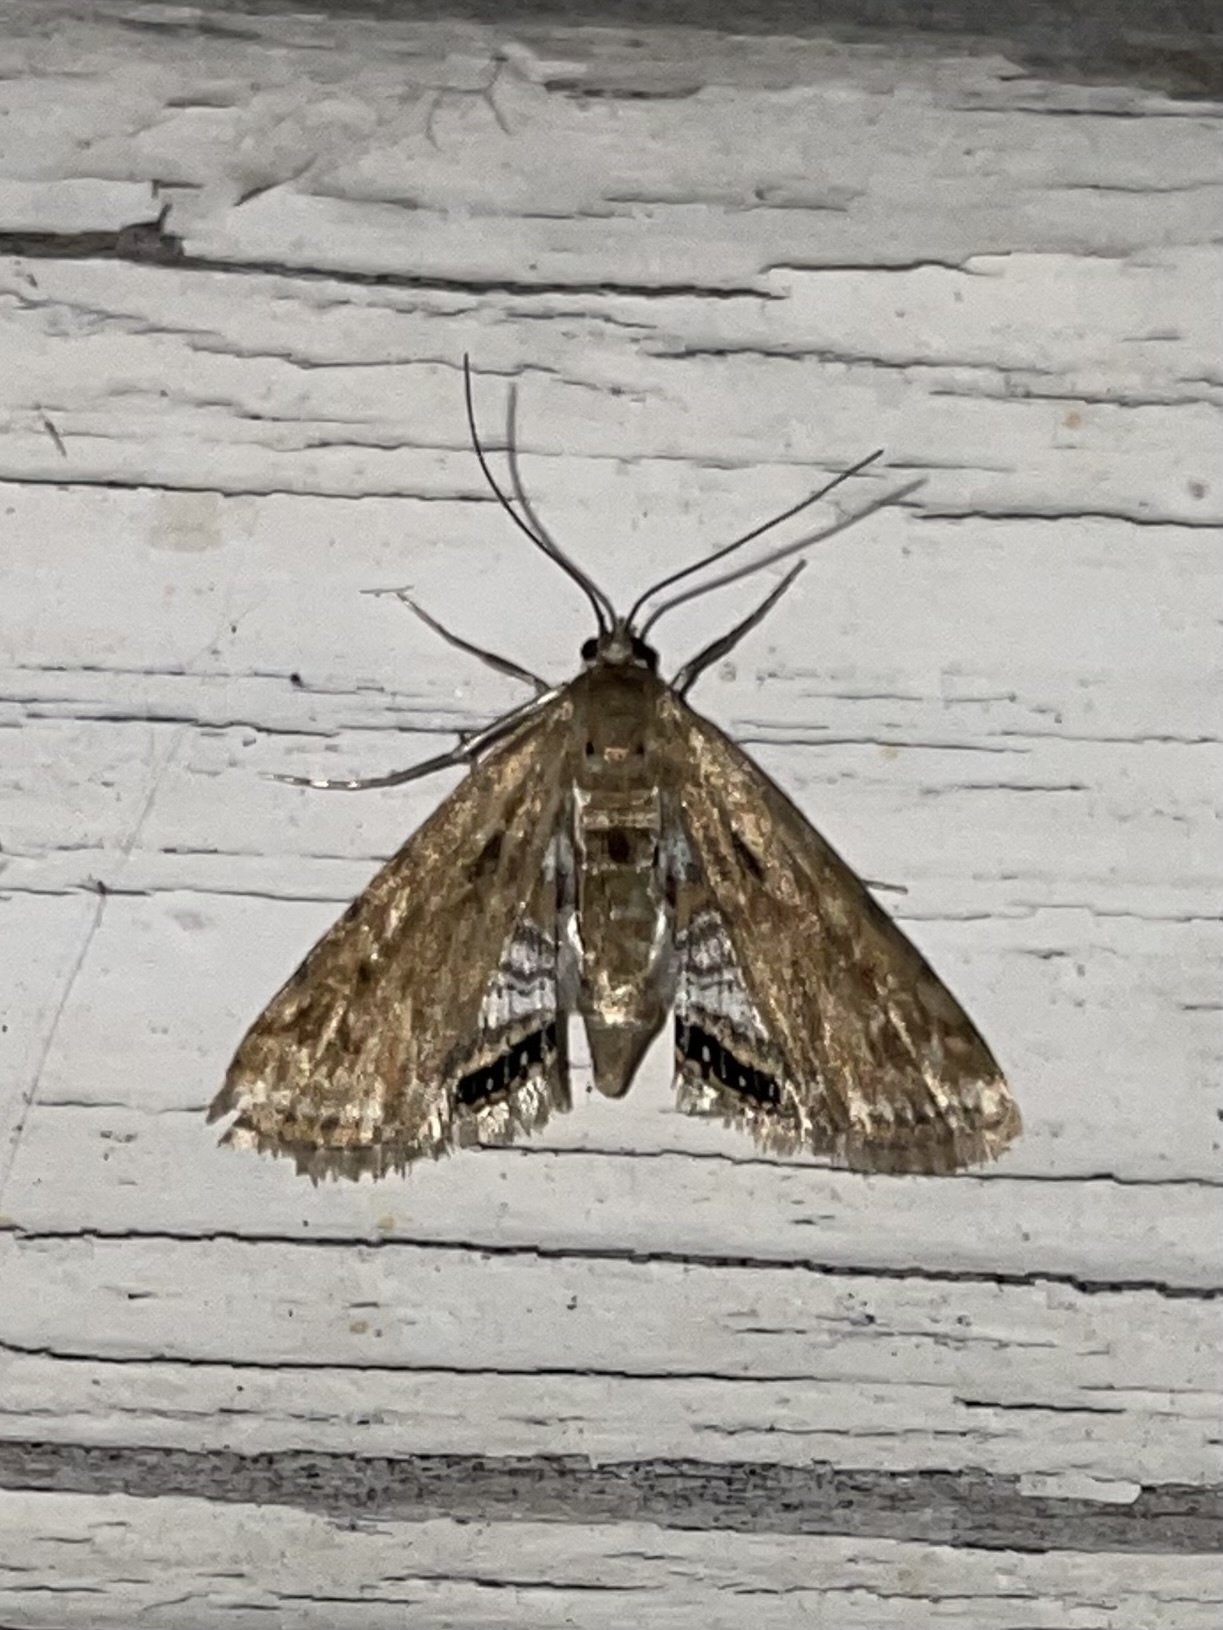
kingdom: Animalia
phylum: Arthropoda
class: Insecta
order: Lepidoptera
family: Crambidae
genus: Cataclysta
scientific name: Cataclysta lemnata
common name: Small china-mark
